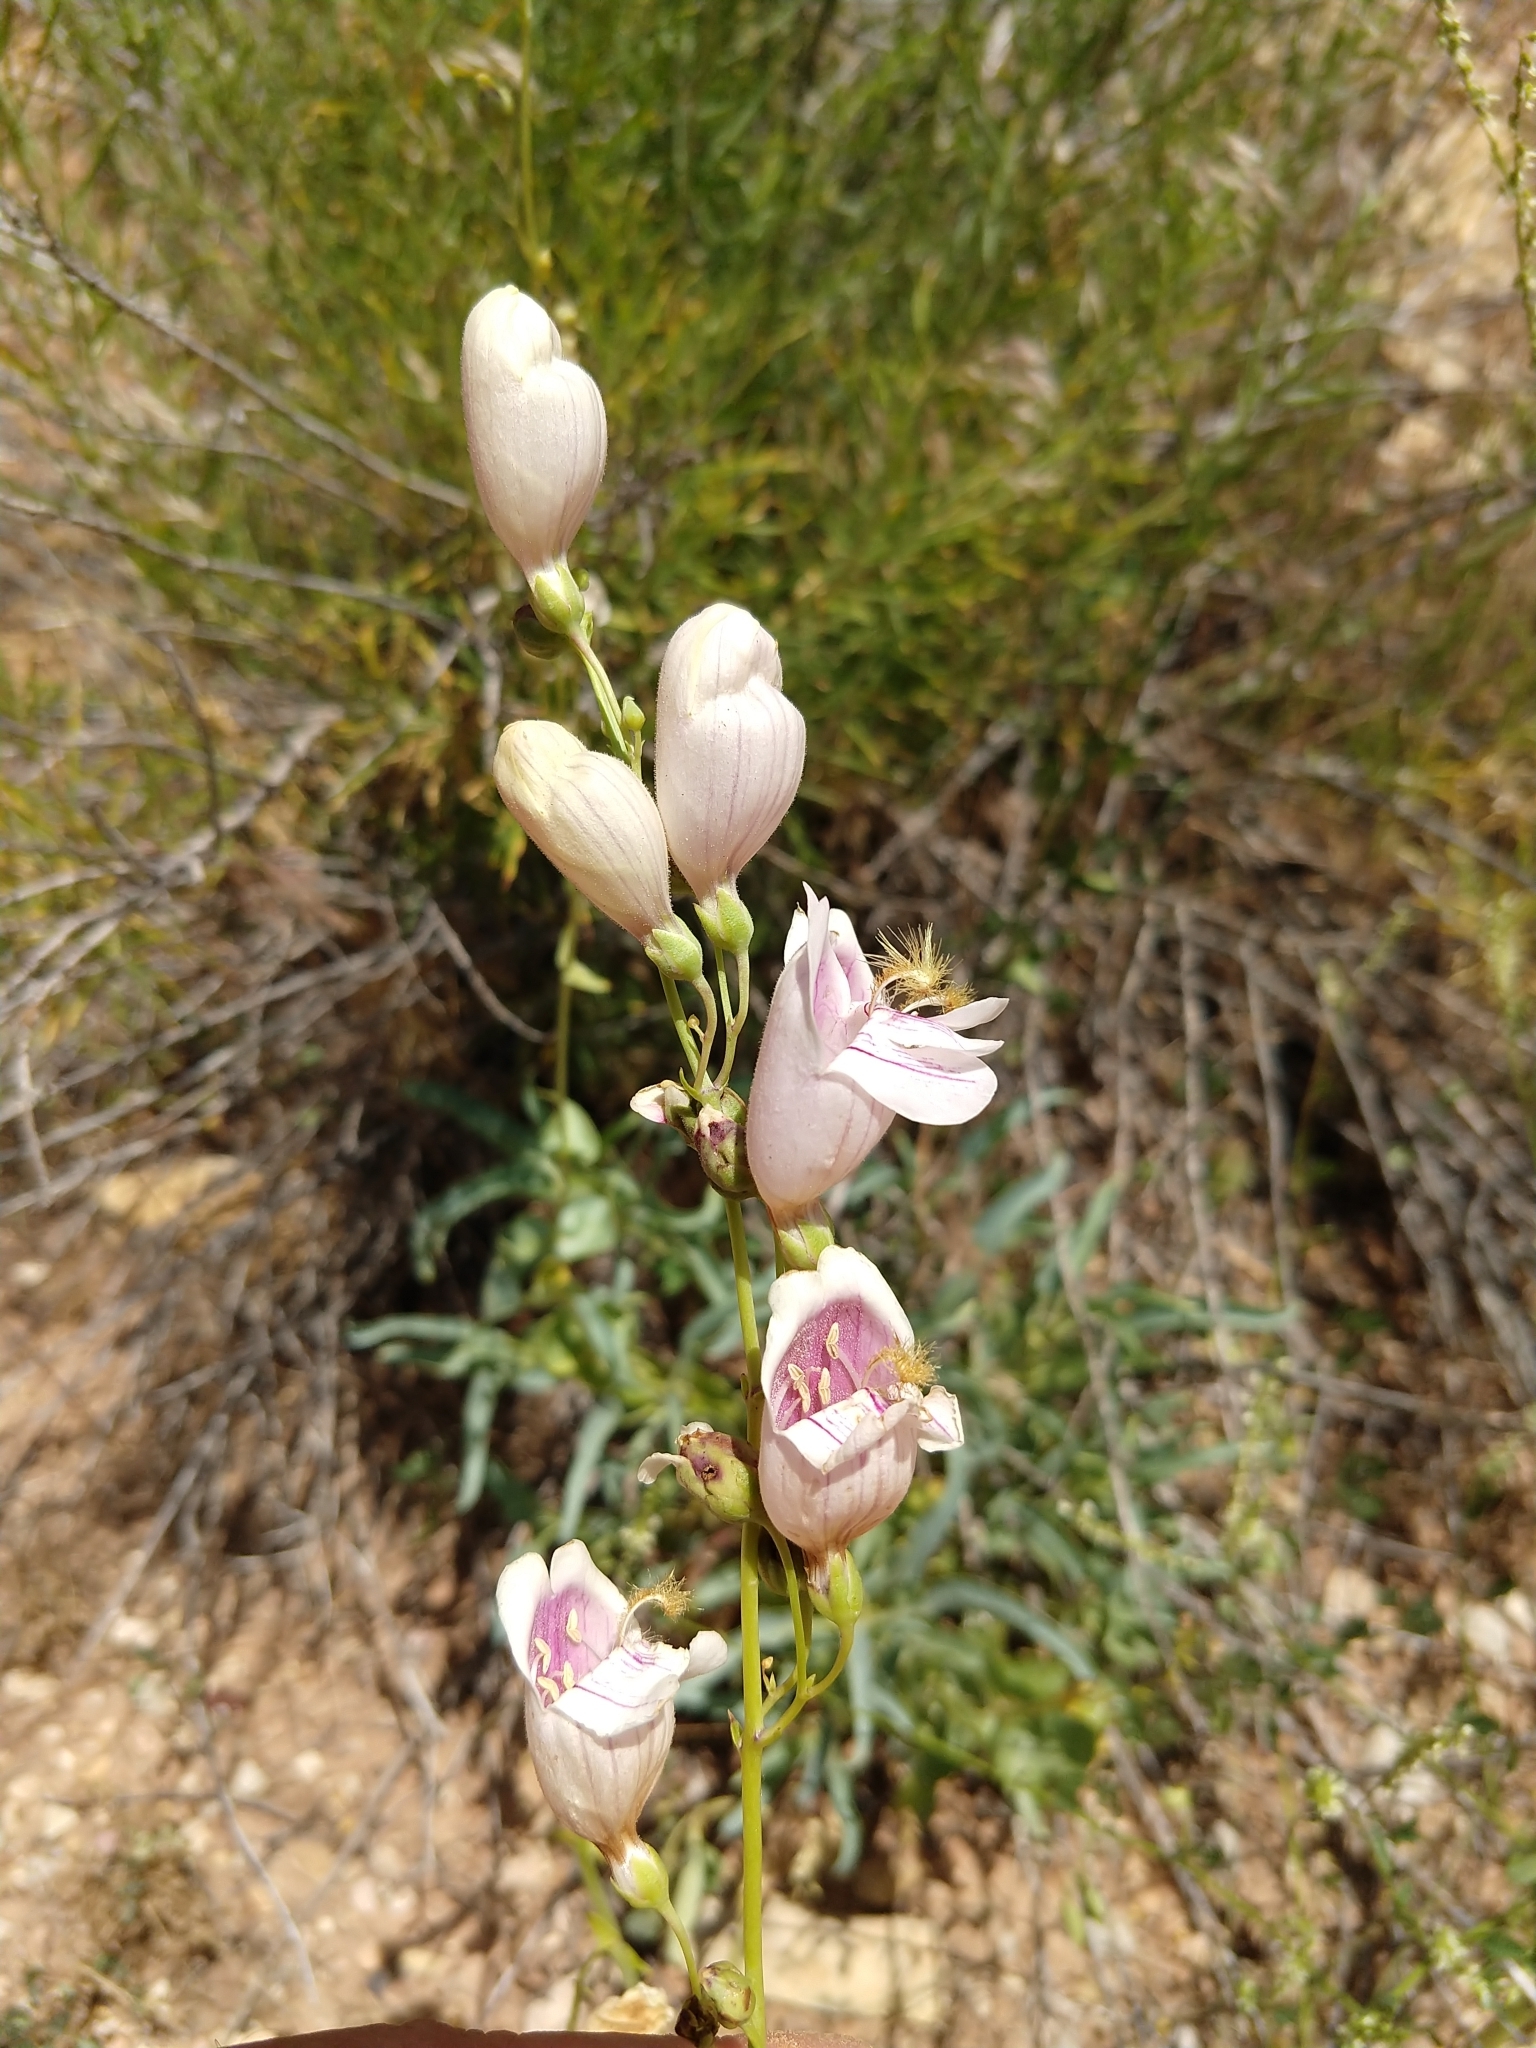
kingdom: Plantae
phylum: Tracheophyta
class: Magnoliopsida
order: Lamiales
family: Plantaginaceae
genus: Penstemon
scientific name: Penstemon palmeri
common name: Palmer penstemon
